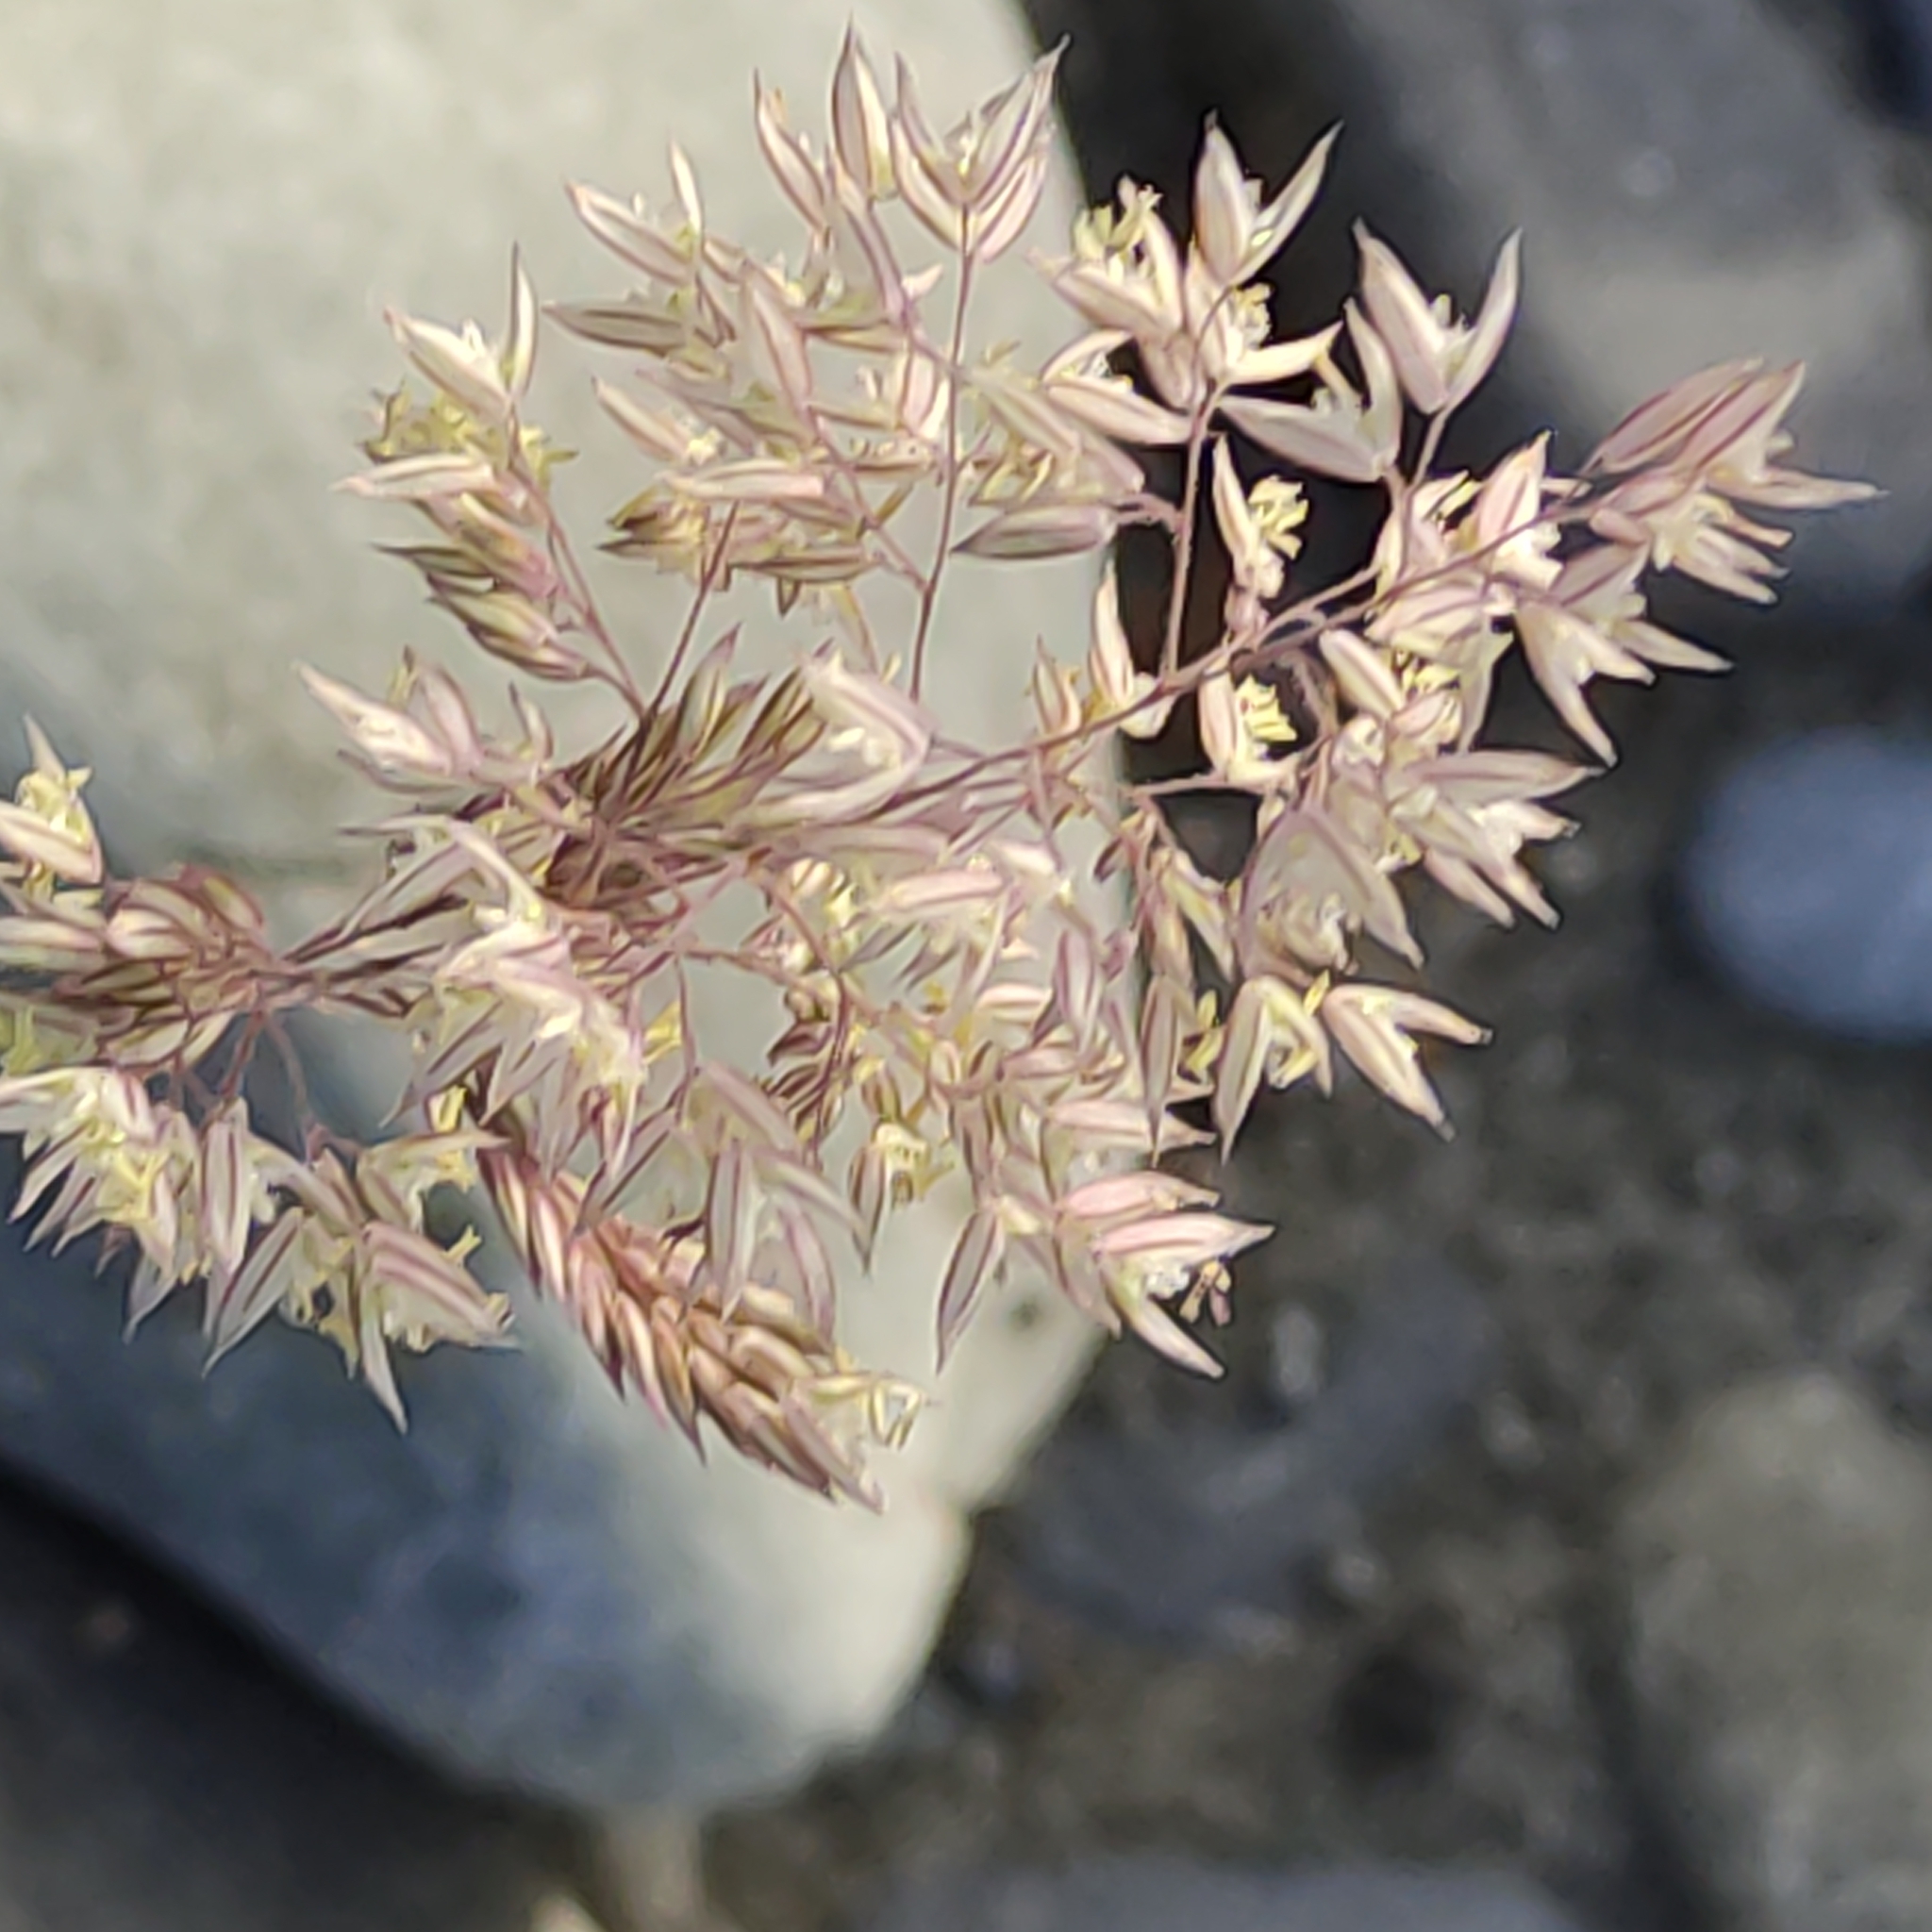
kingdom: Plantae
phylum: Tracheophyta
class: Liliopsida
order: Poales
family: Poaceae
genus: Holcus
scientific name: Holcus lanatus
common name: Yorkshire-fog
